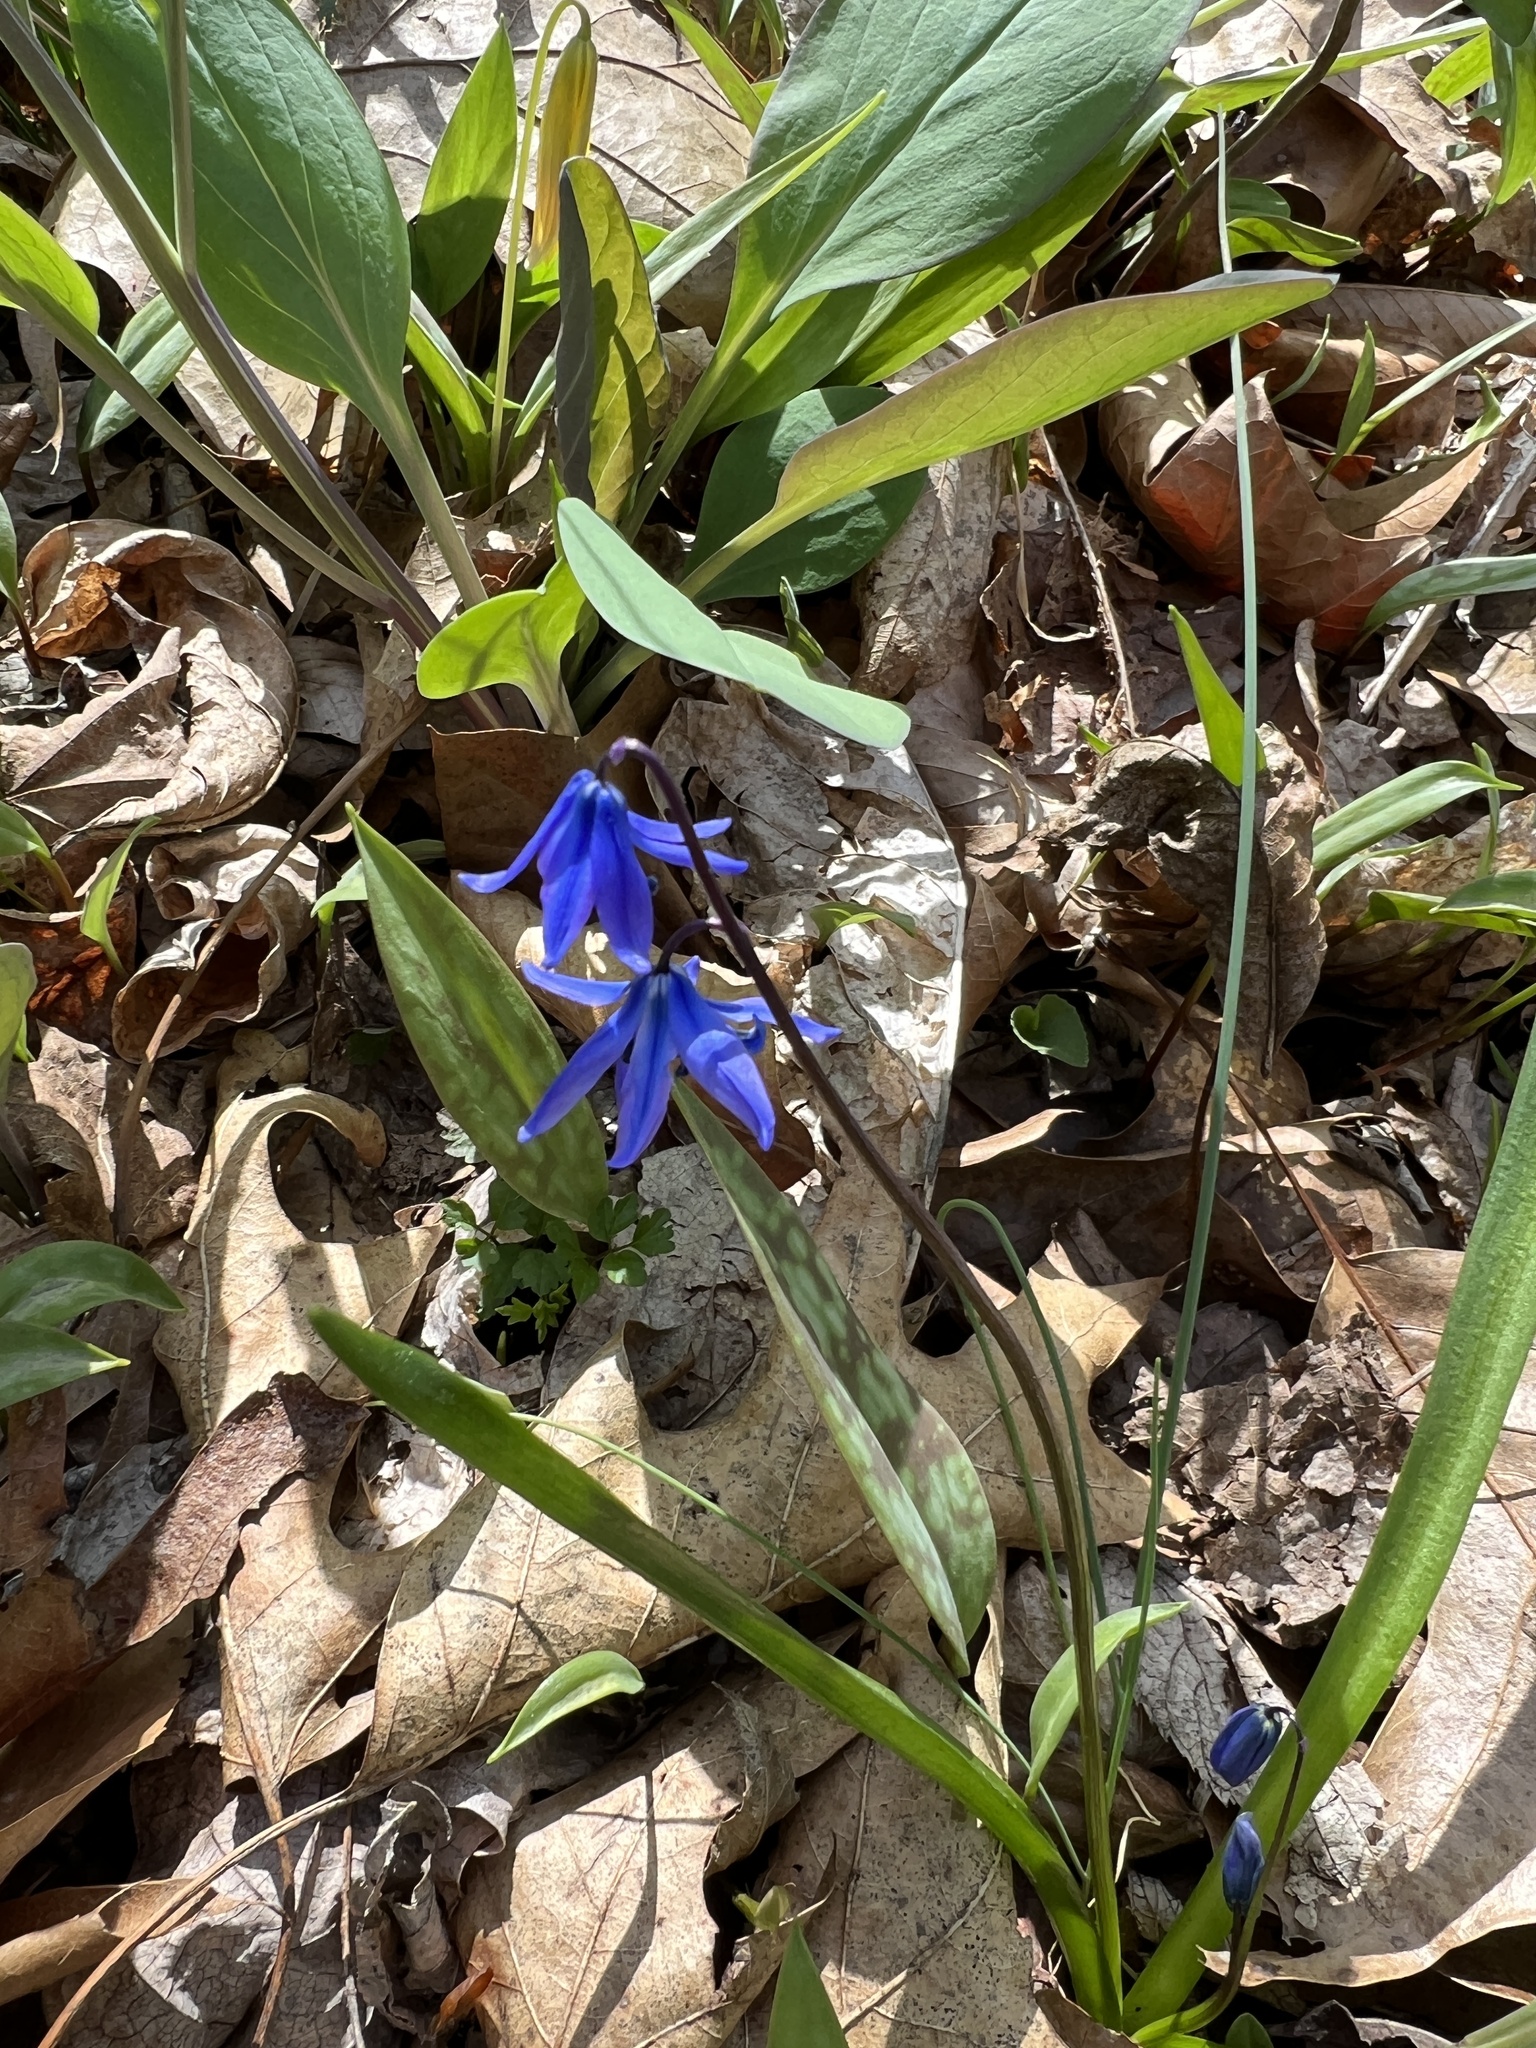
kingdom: Plantae
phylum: Tracheophyta
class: Liliopsida
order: Asparagales
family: Asparagaceae
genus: Scilla
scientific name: Scilla siberica
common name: Siberian squill
